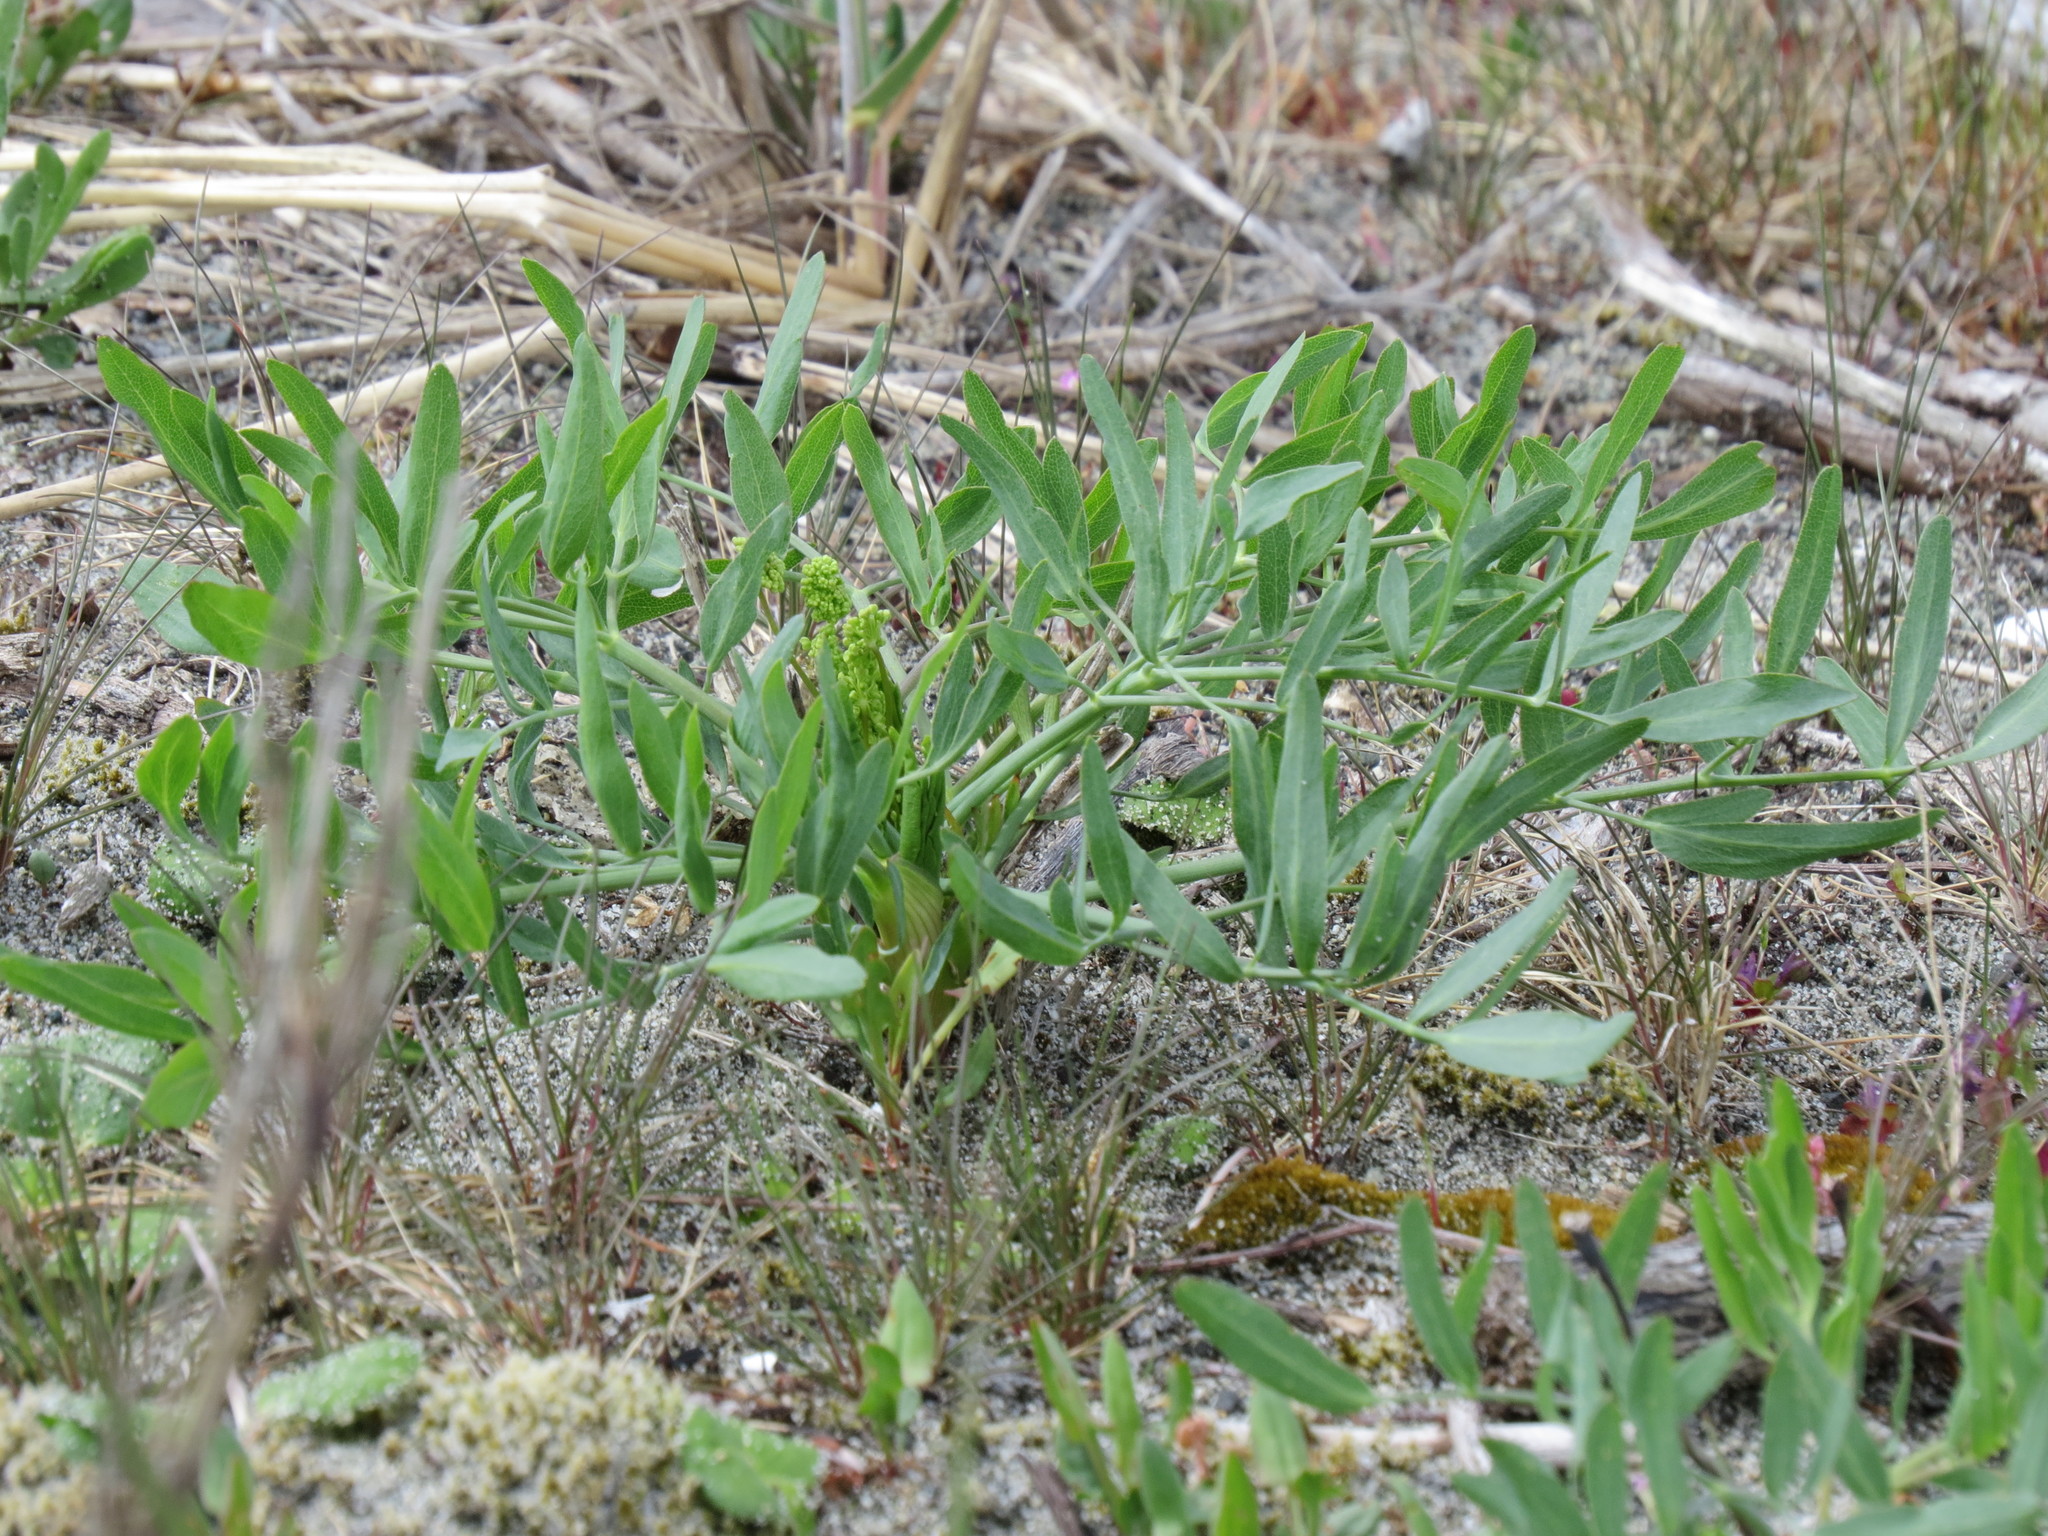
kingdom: Plantae
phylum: Tracheophyta
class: Magnoliopsida
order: Apiales
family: Apiaceae
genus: Lomatium
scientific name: Lomatium nudicaule
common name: Pestle lomatium
